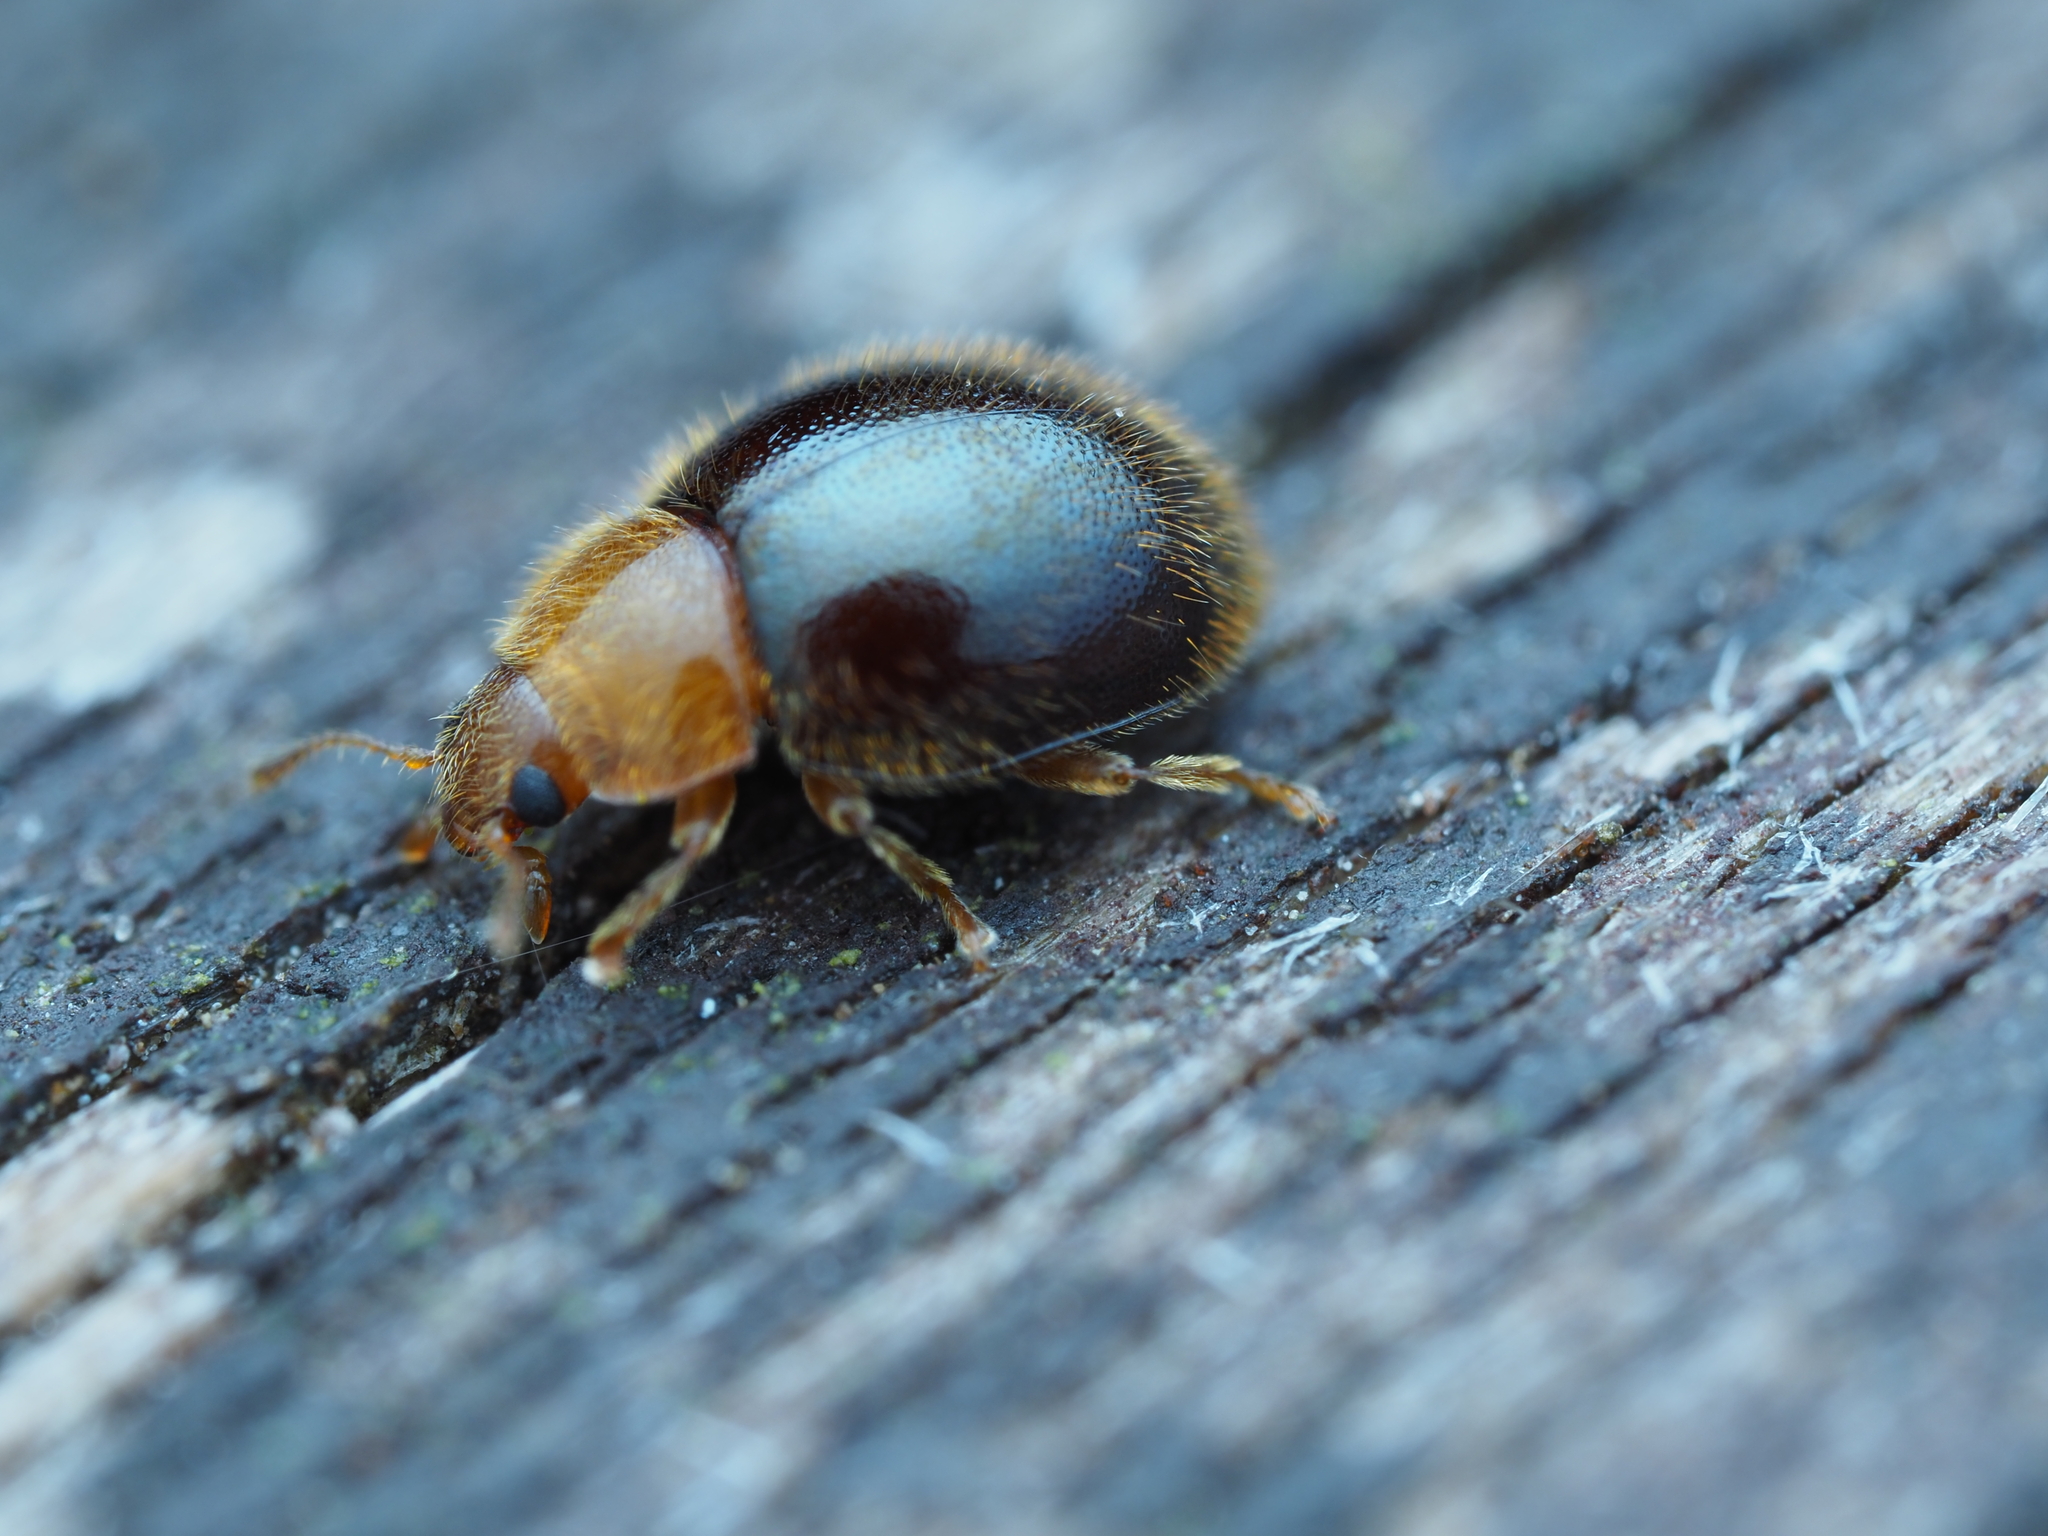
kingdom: Animalia
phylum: Arthropoda
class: Insecta
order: Coleoptera
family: Coccinellidae
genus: Adoxellus
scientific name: Adoxellus
